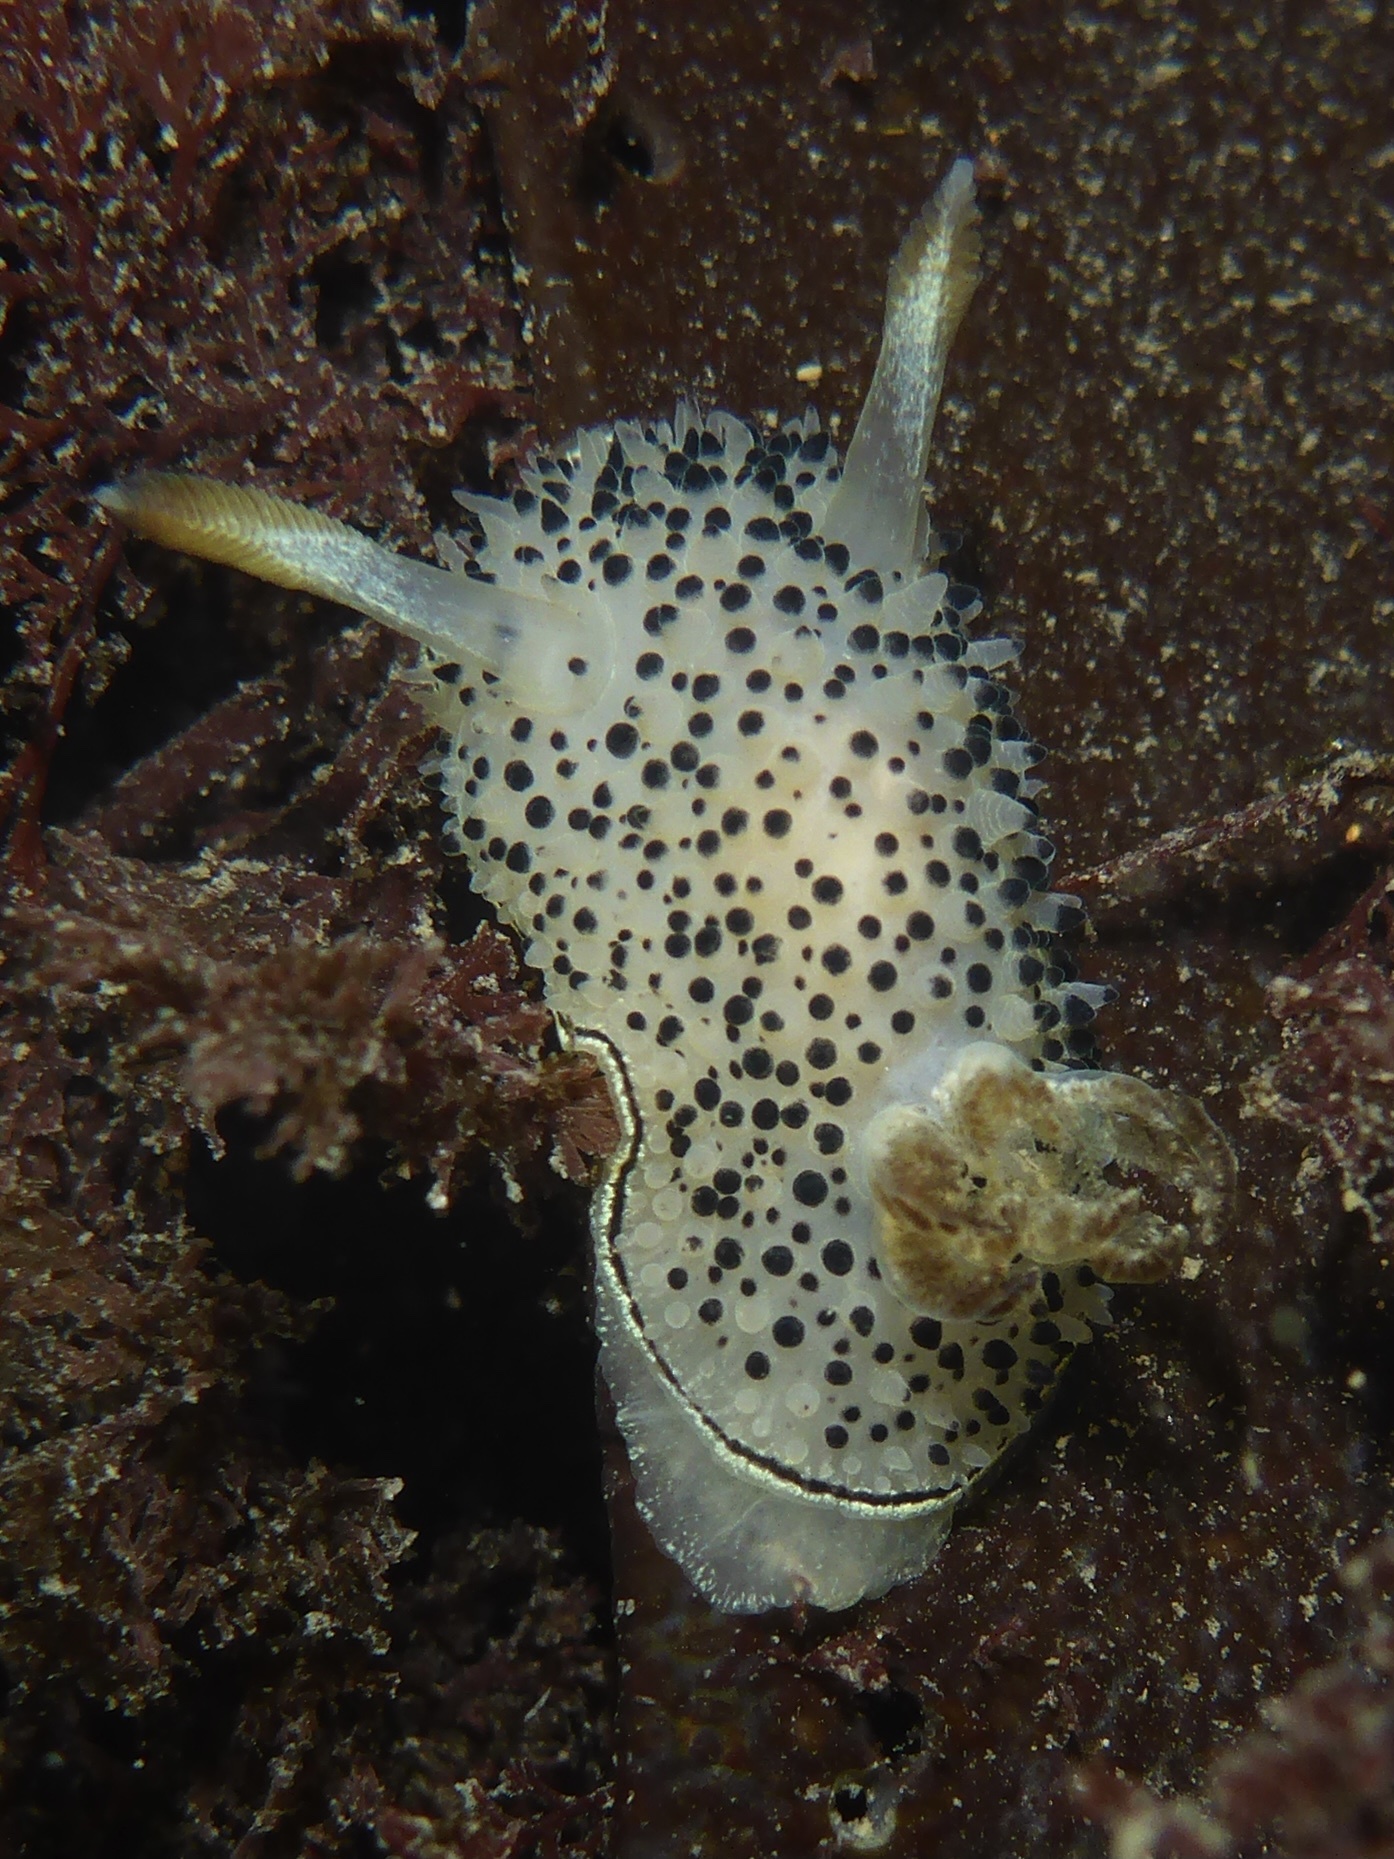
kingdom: Animalia
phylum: Mollusca
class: Gastropoda
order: Nudibranchia
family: Onchidorididae
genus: Acanthodoris
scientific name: Acanthodoris rhodoceras
